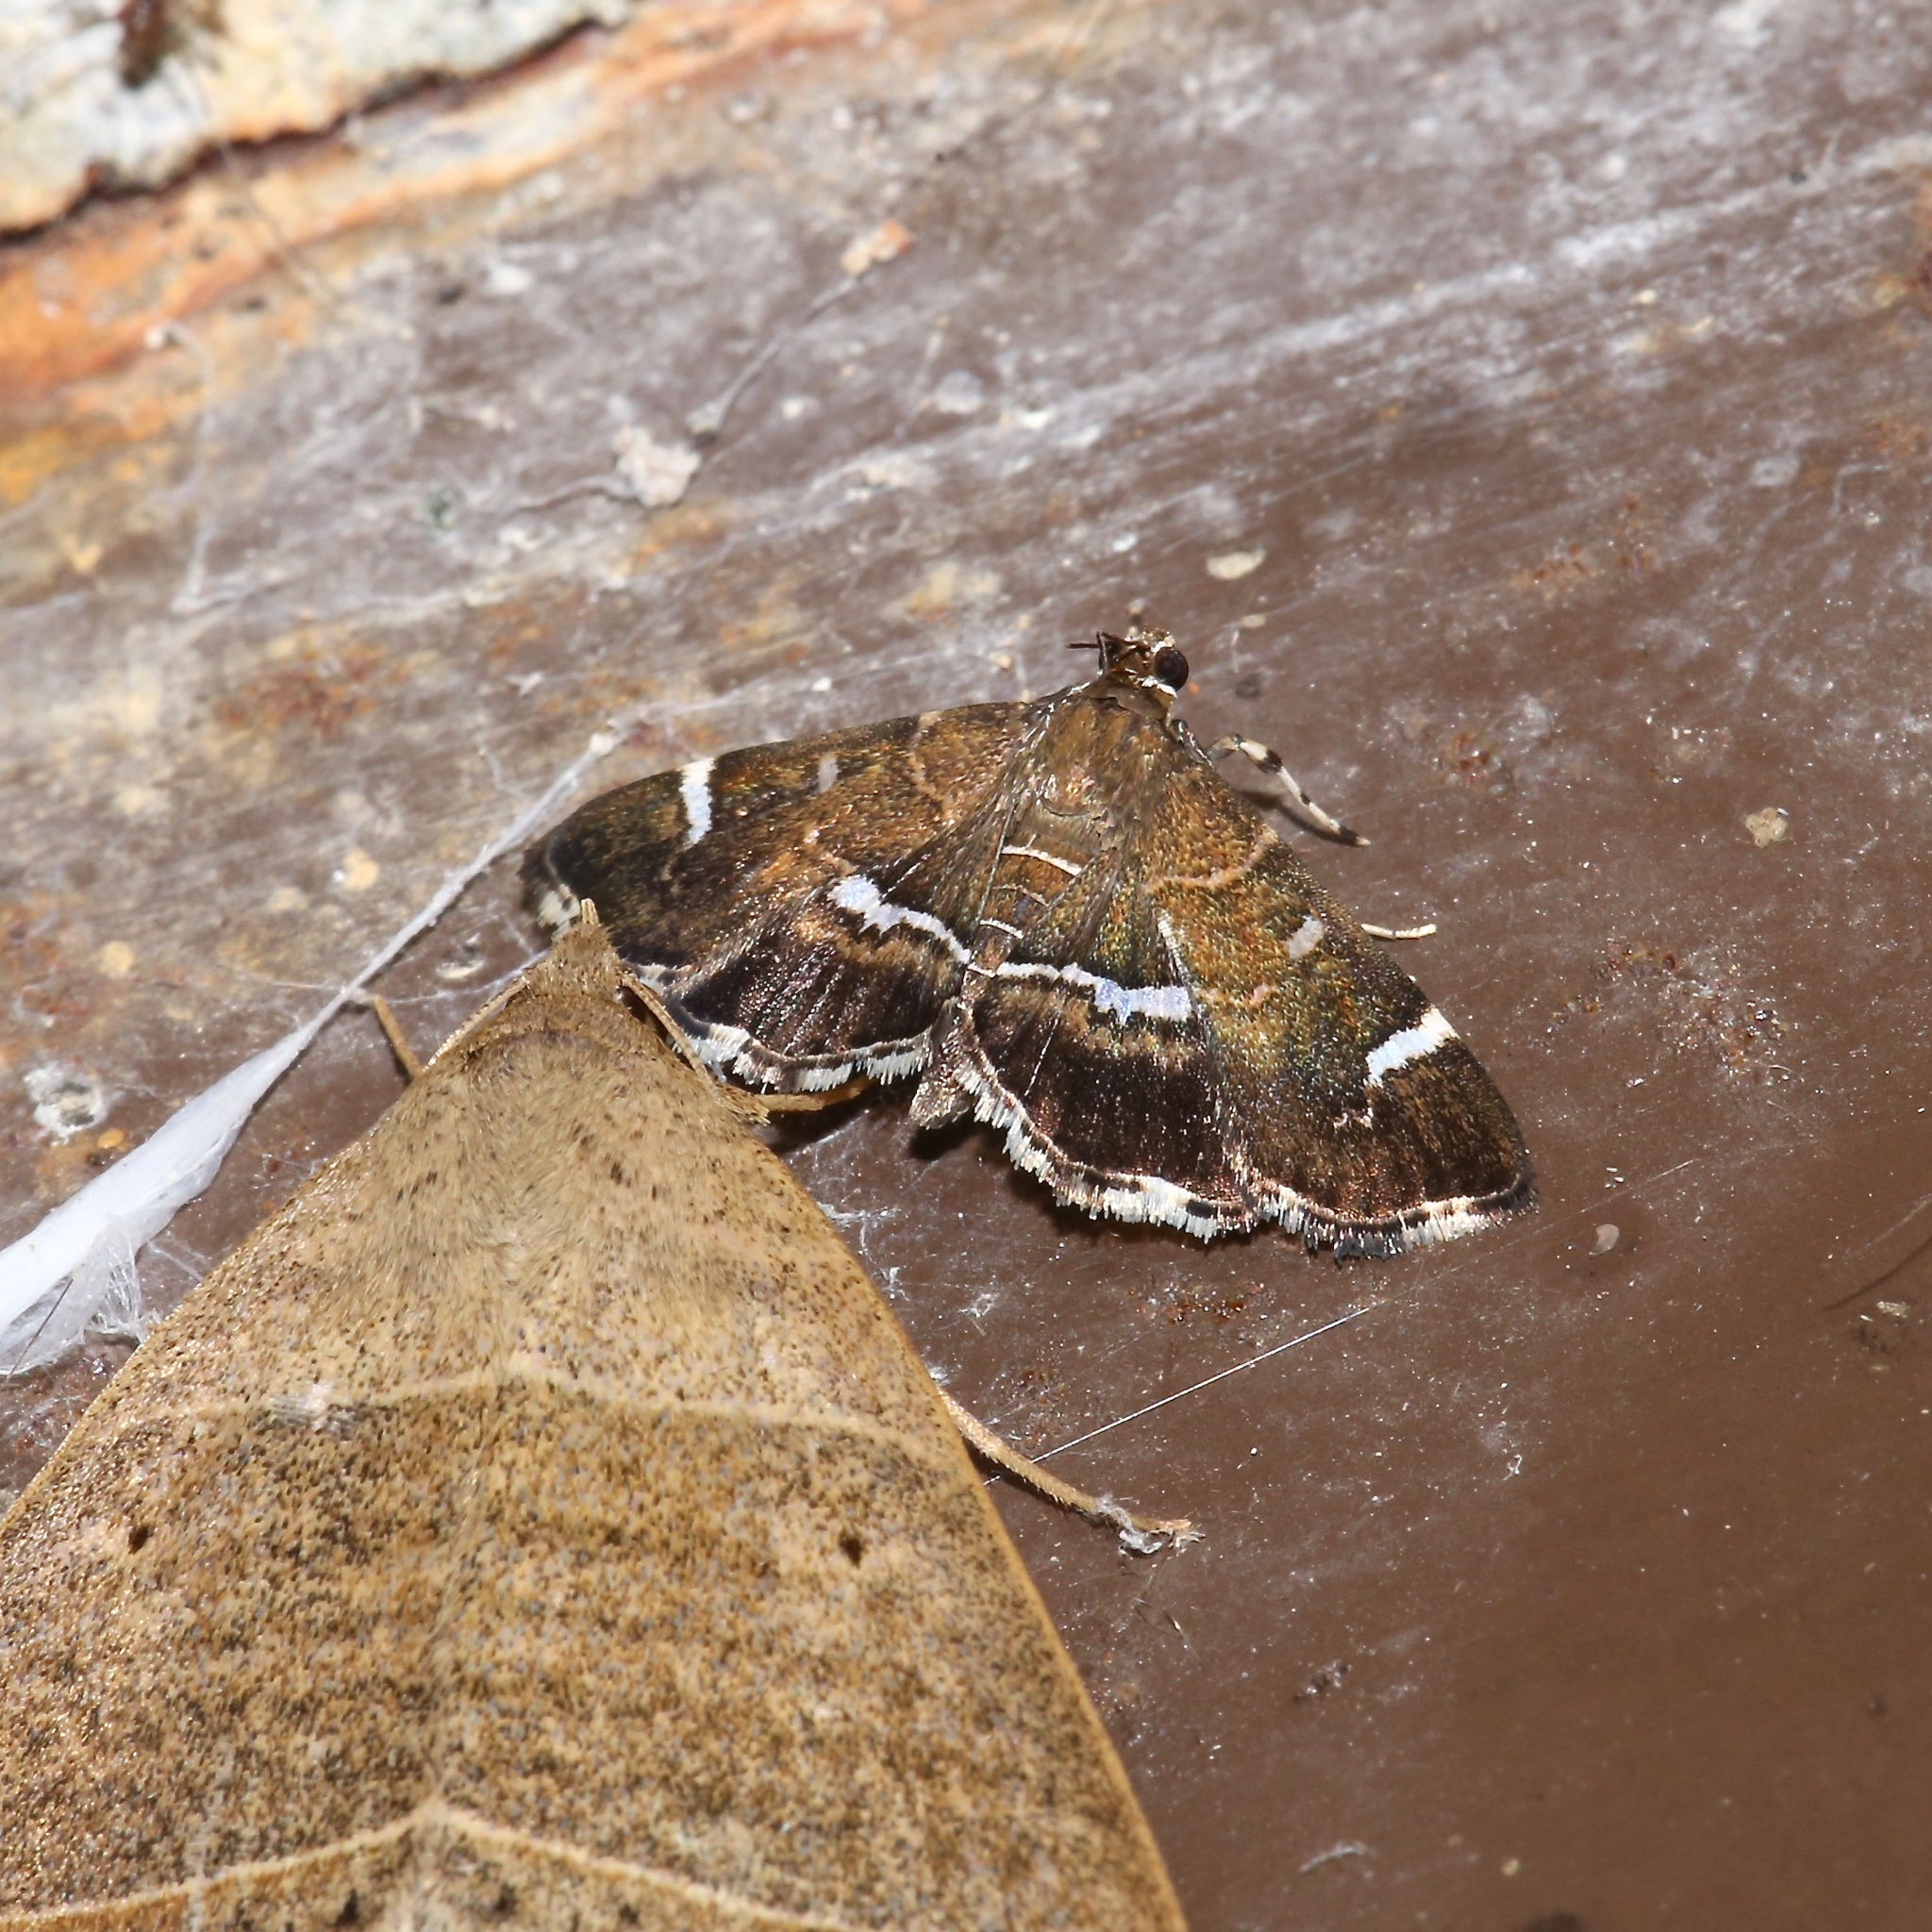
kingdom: Animalia
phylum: Arthropoda
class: Insecta
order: Lepidoptera
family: Crambidae
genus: Hymenia
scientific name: Hymenia perspectalis
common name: Spotted beet webworm
